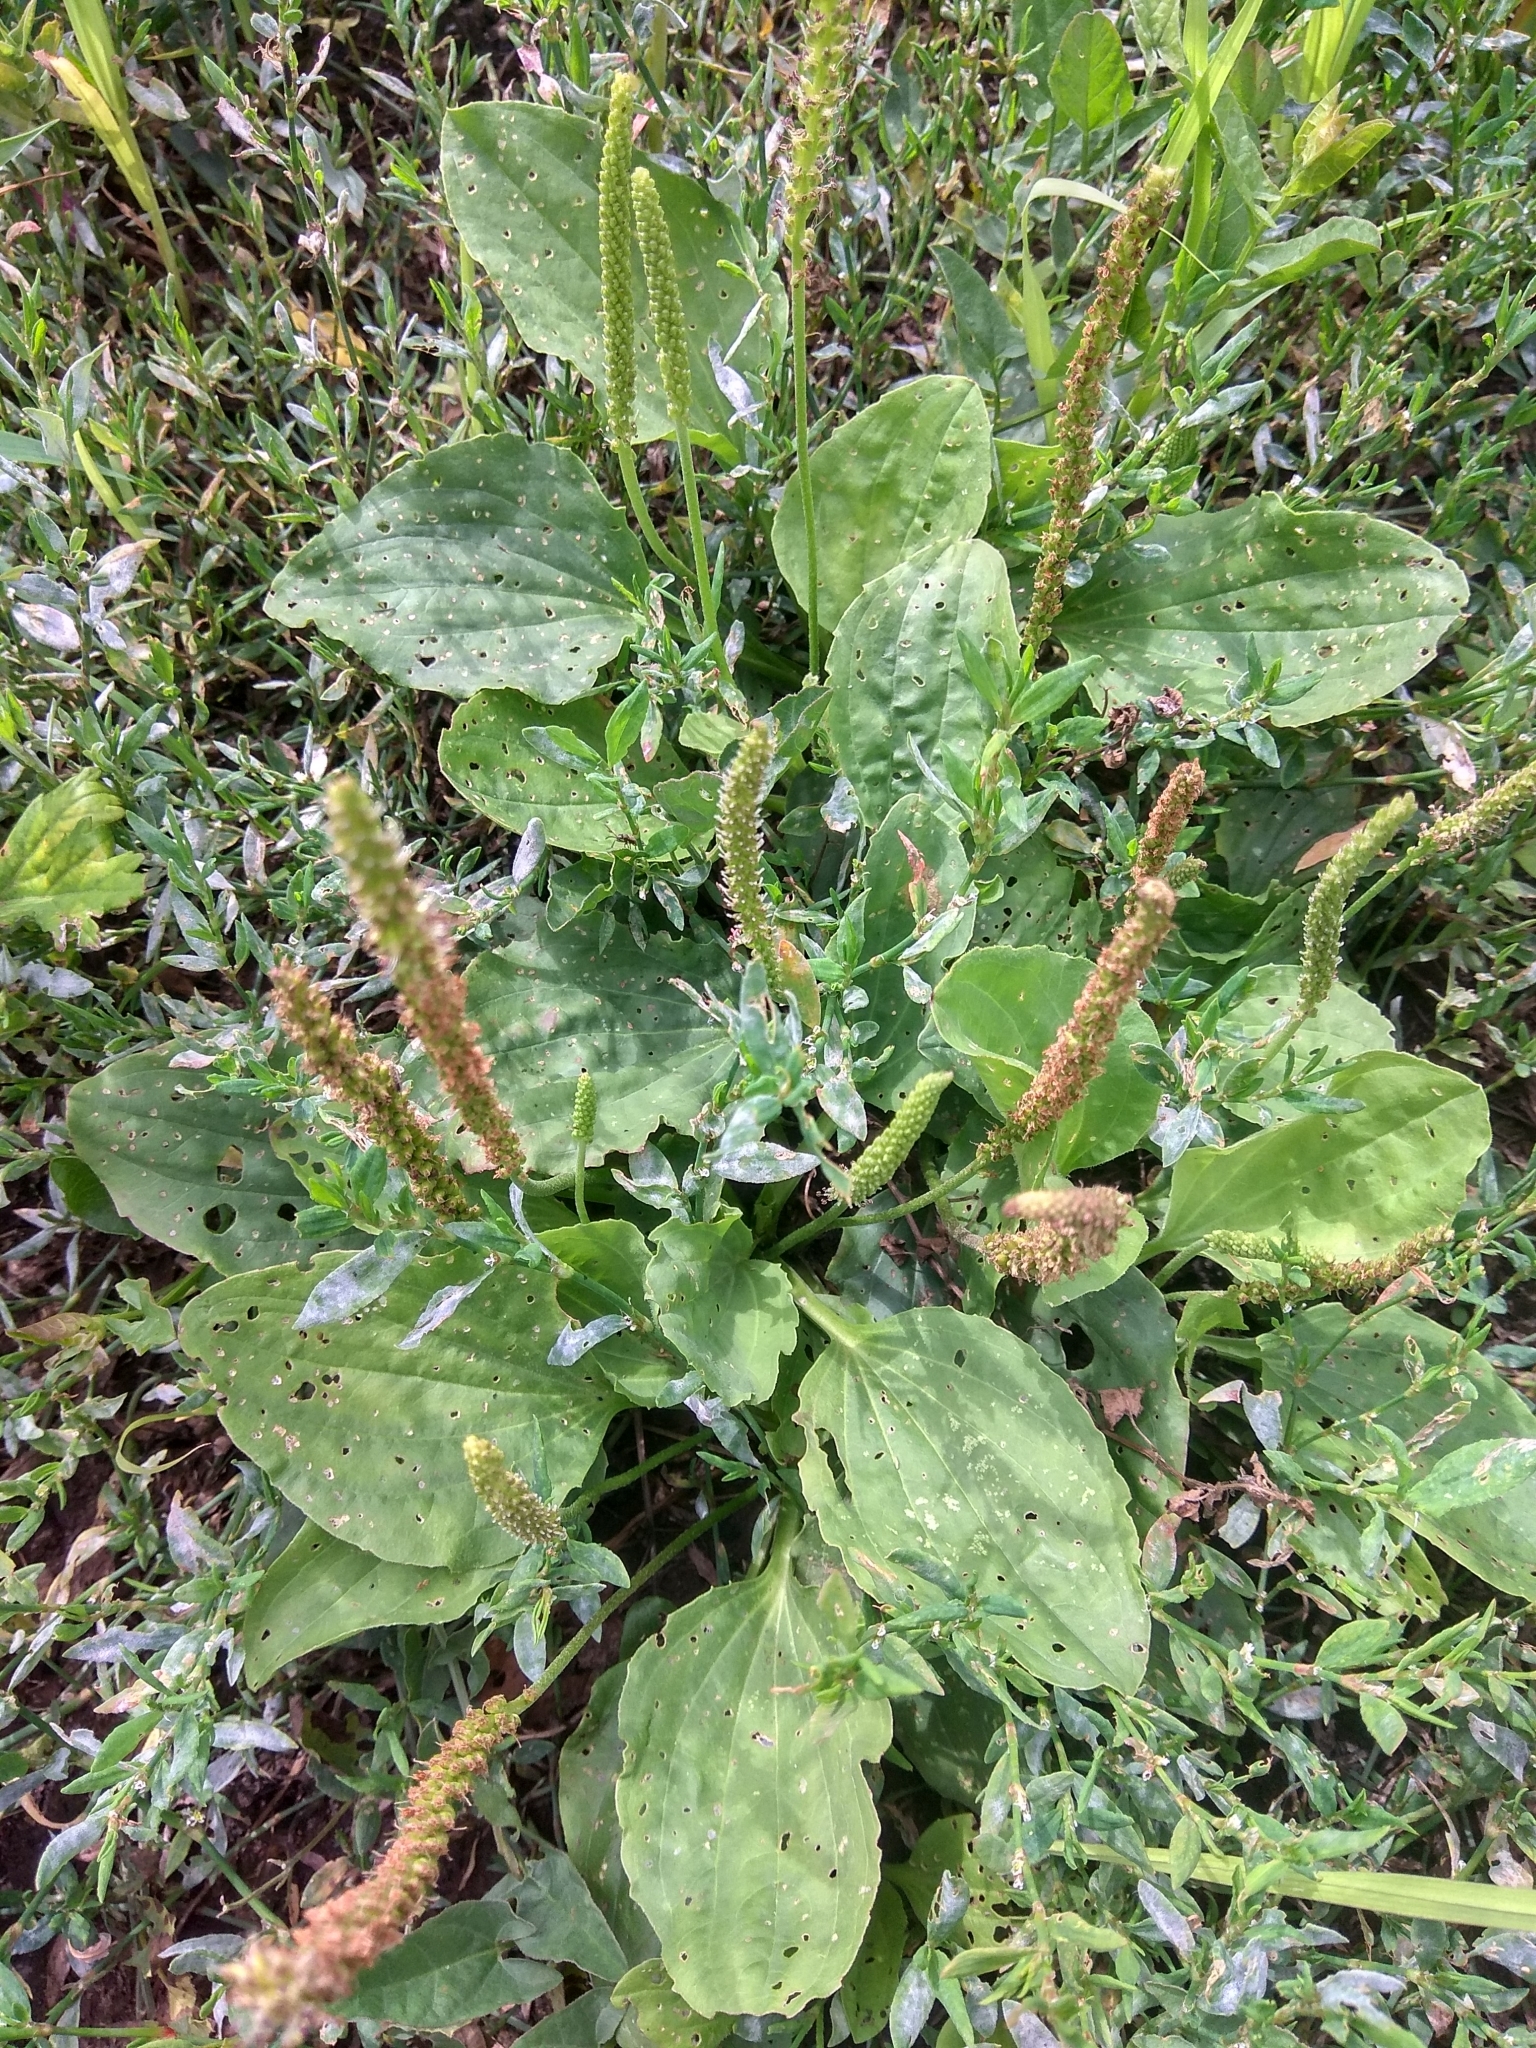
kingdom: Plantae
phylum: Tracheophyta
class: Magnoliopsida
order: Lamiales
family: Plantaginaceae
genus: Plantago
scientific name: Plantago major
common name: Common plantain
